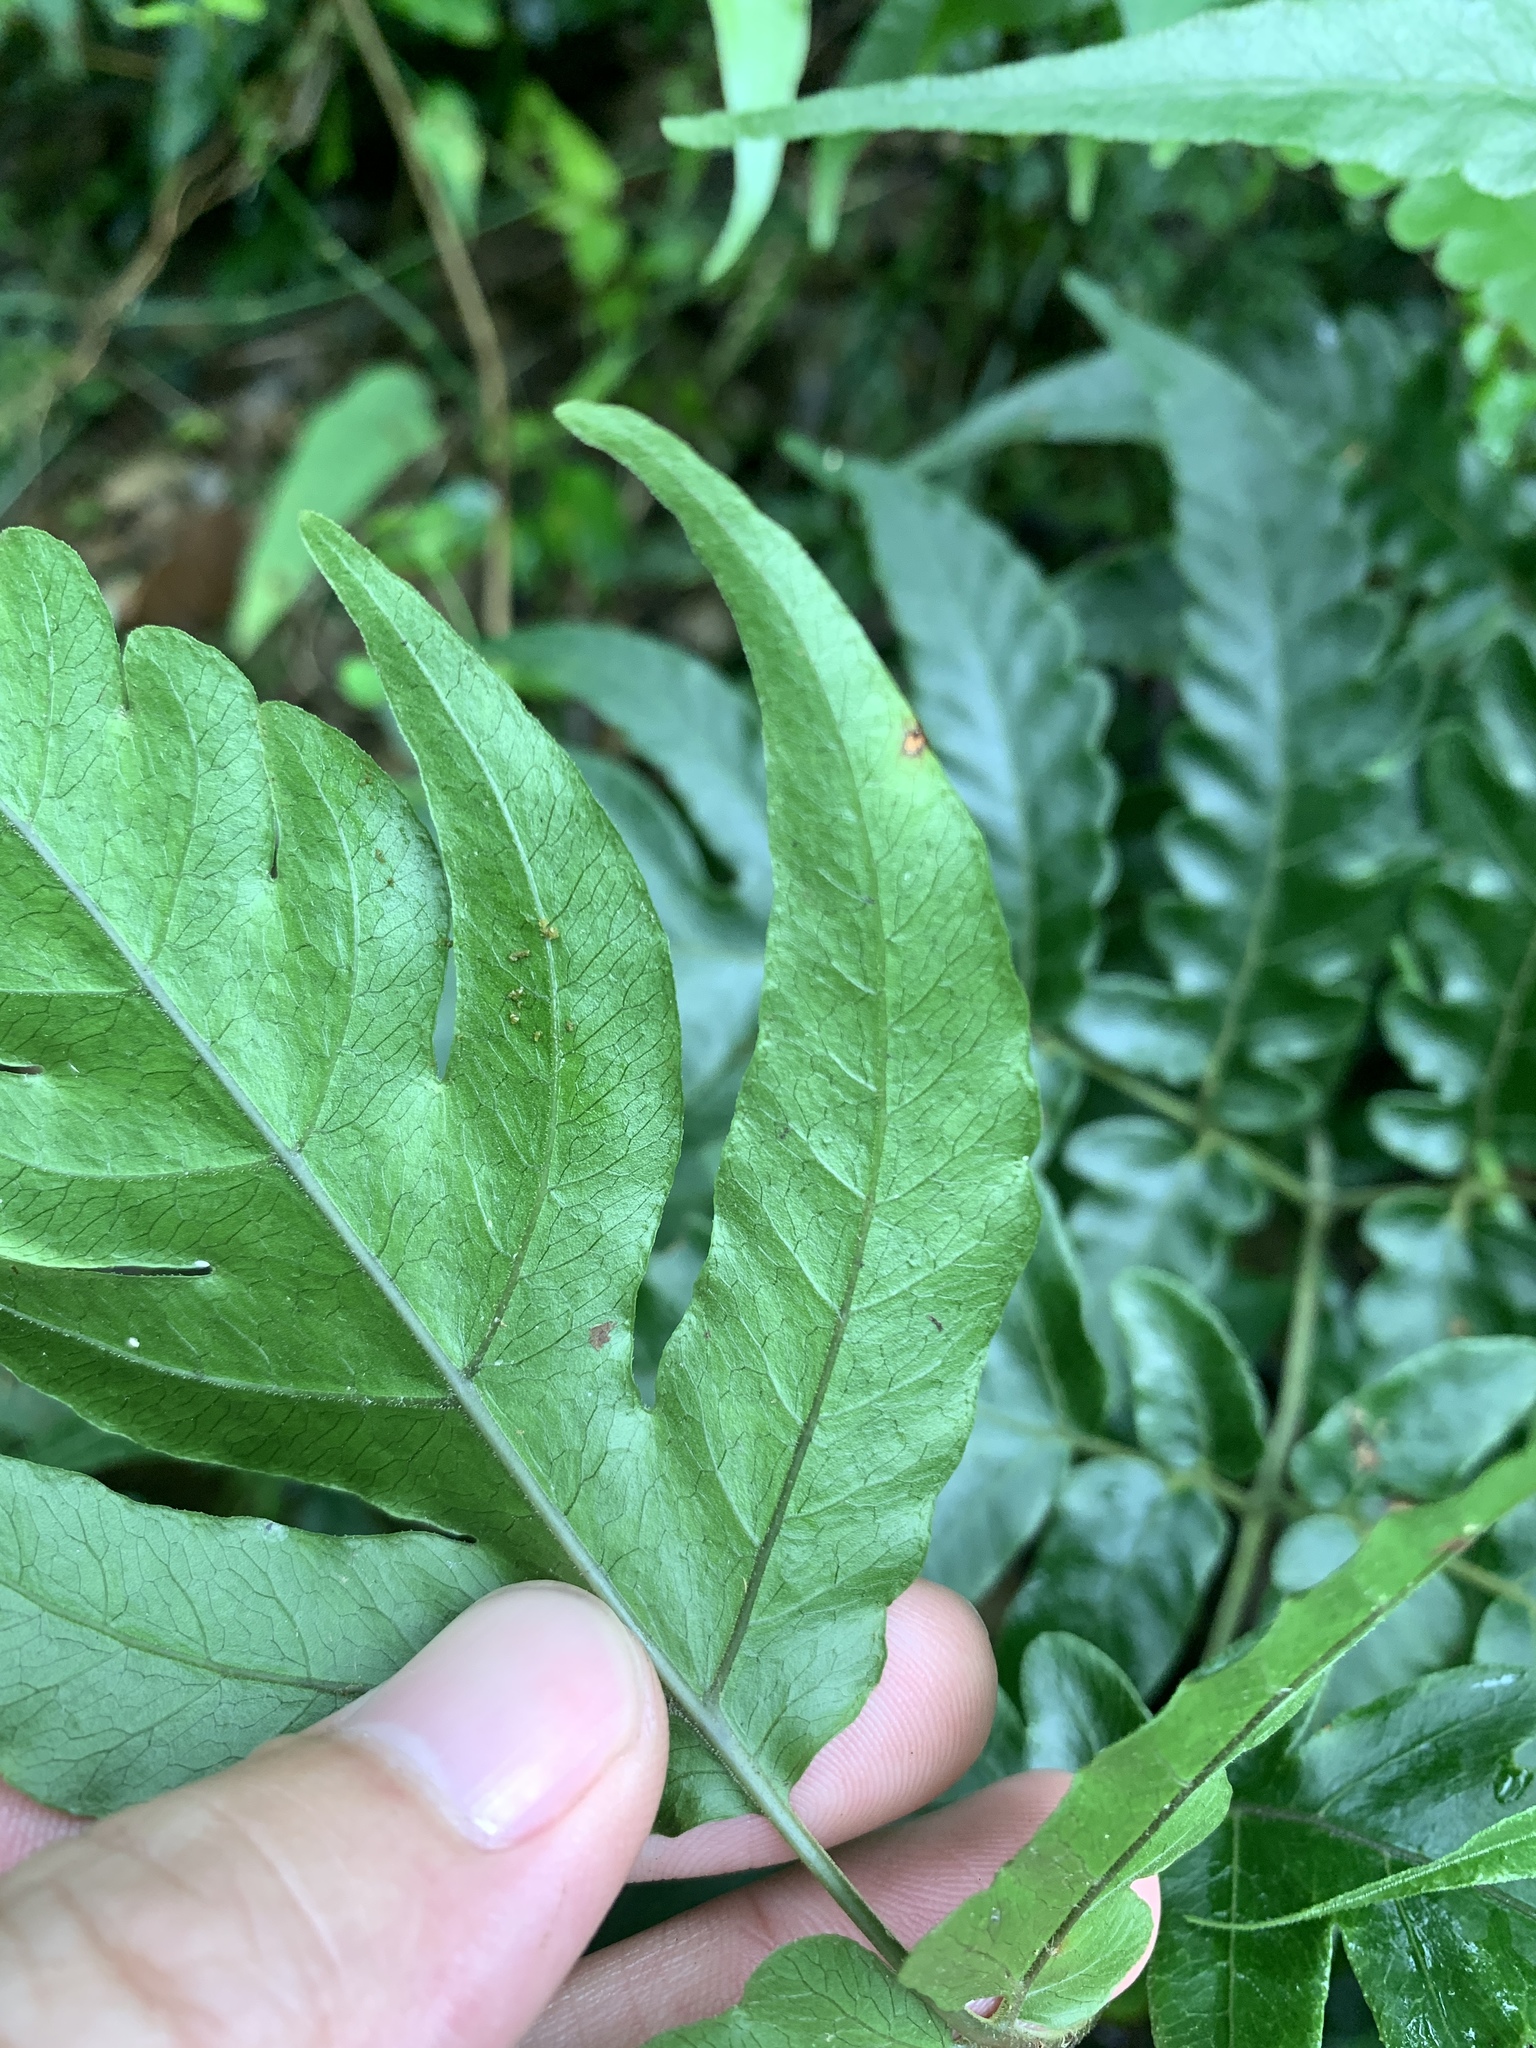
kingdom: Plantae
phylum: Tracheophyta
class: Polypodiopsida
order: Polypodiales
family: Tectariaceae
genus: Tectaria
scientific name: Tectaria impressa
